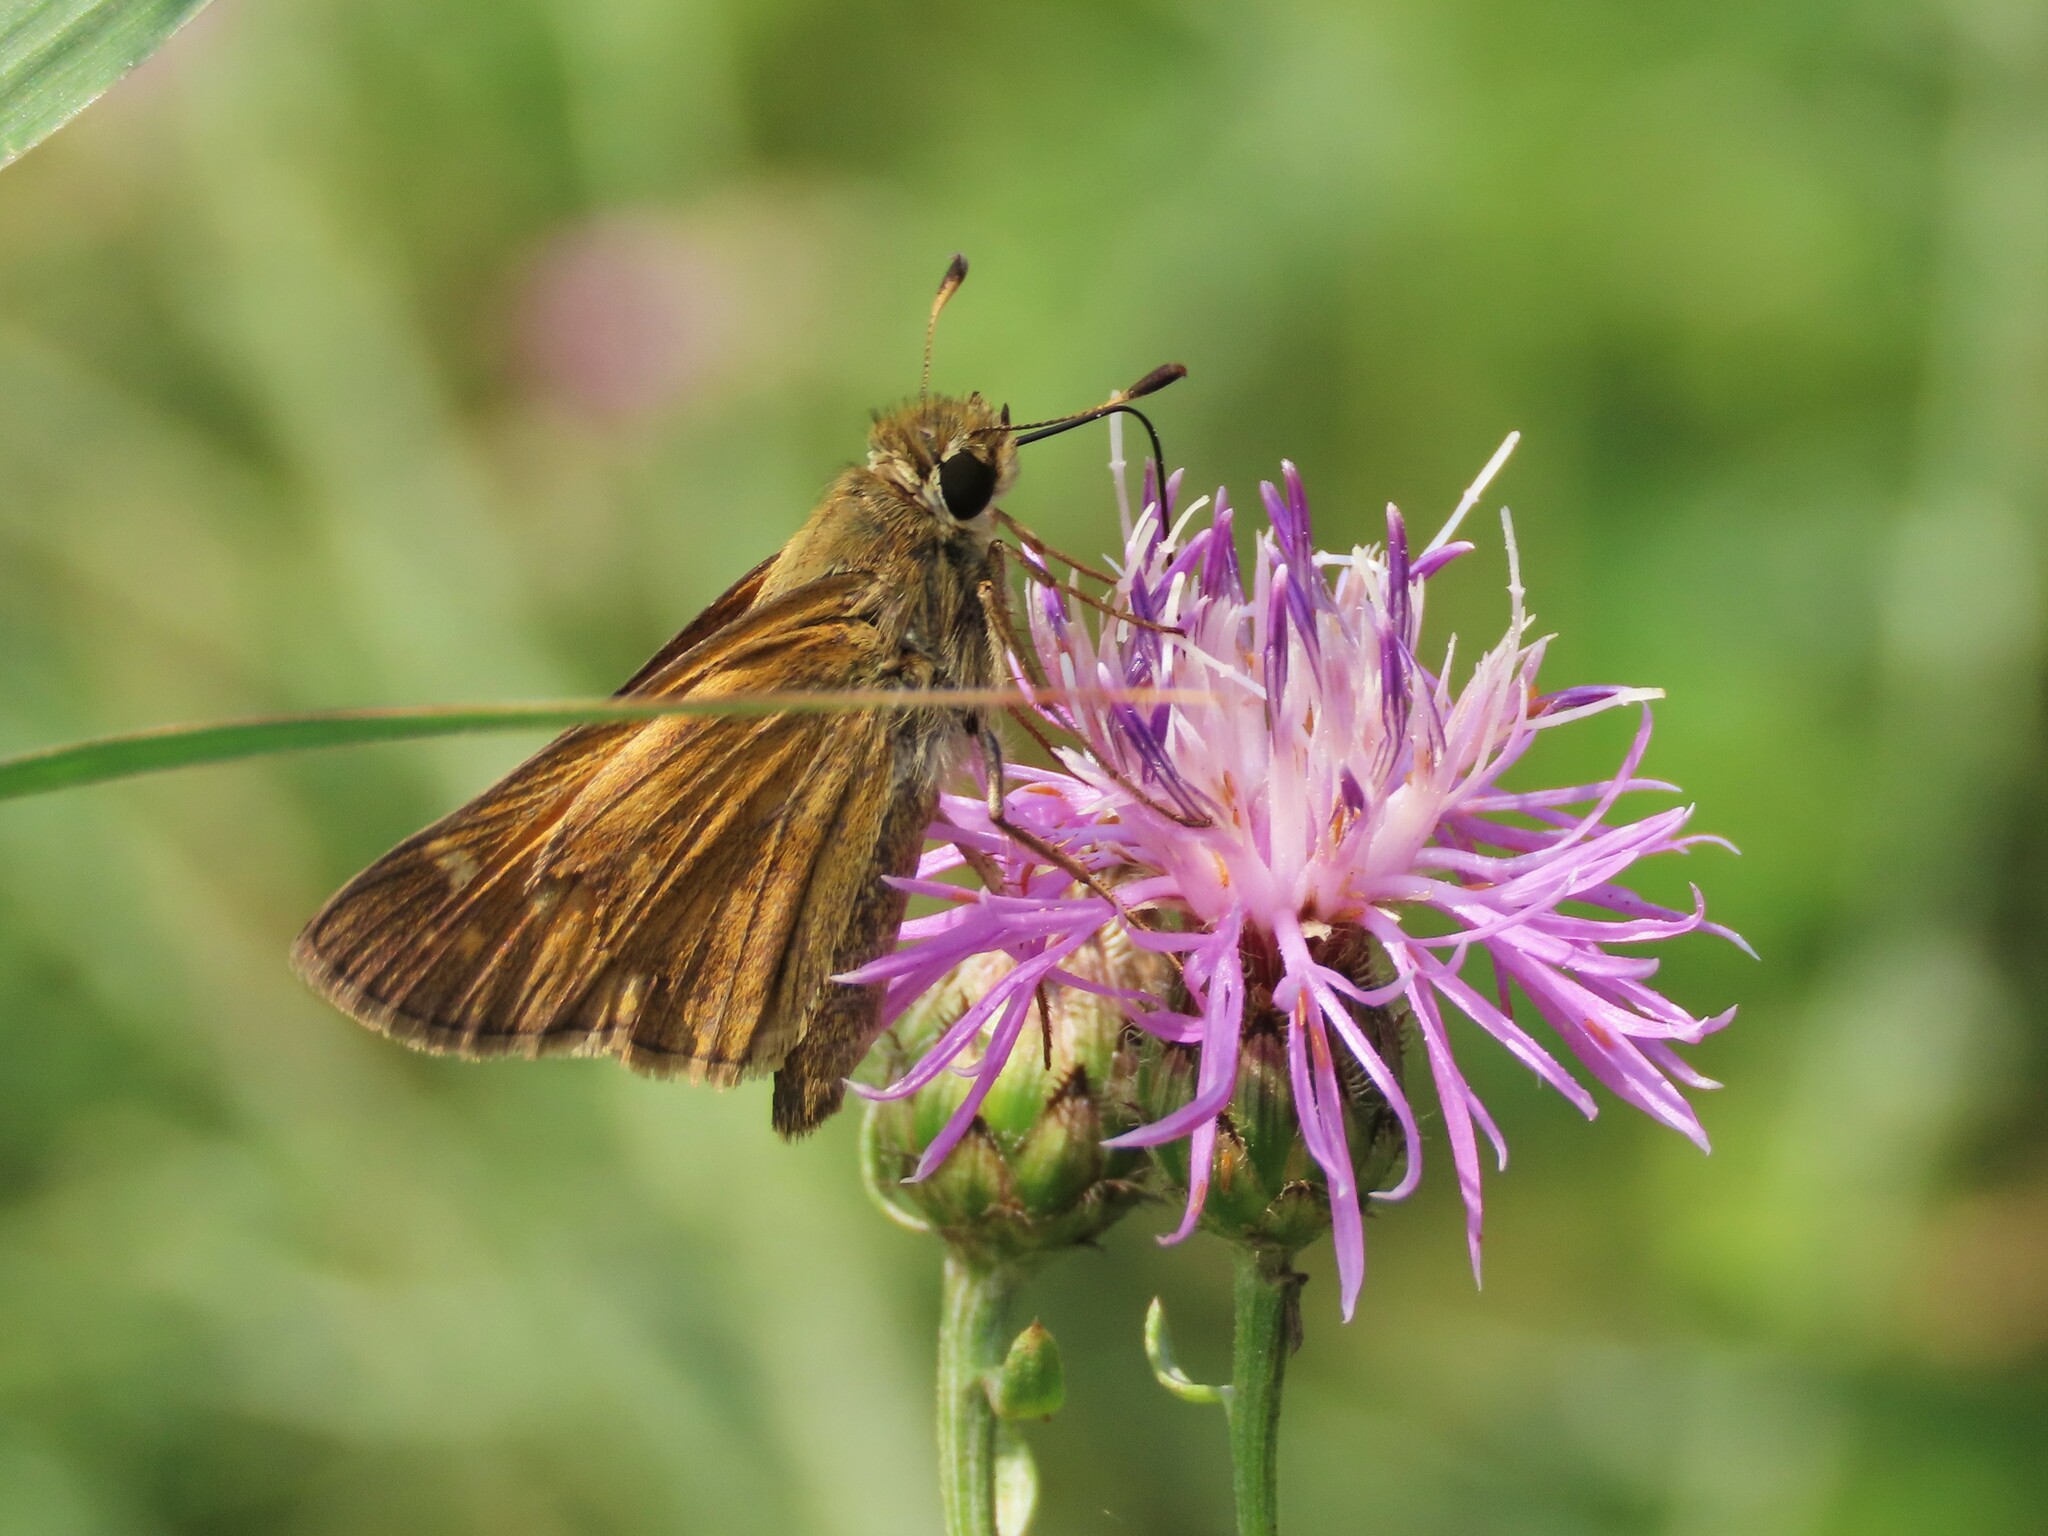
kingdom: Animalia
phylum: Arthropoda
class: Insecta
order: Lepidoptera
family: Hesperiidae
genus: Atalopedes
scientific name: Atalopedes
